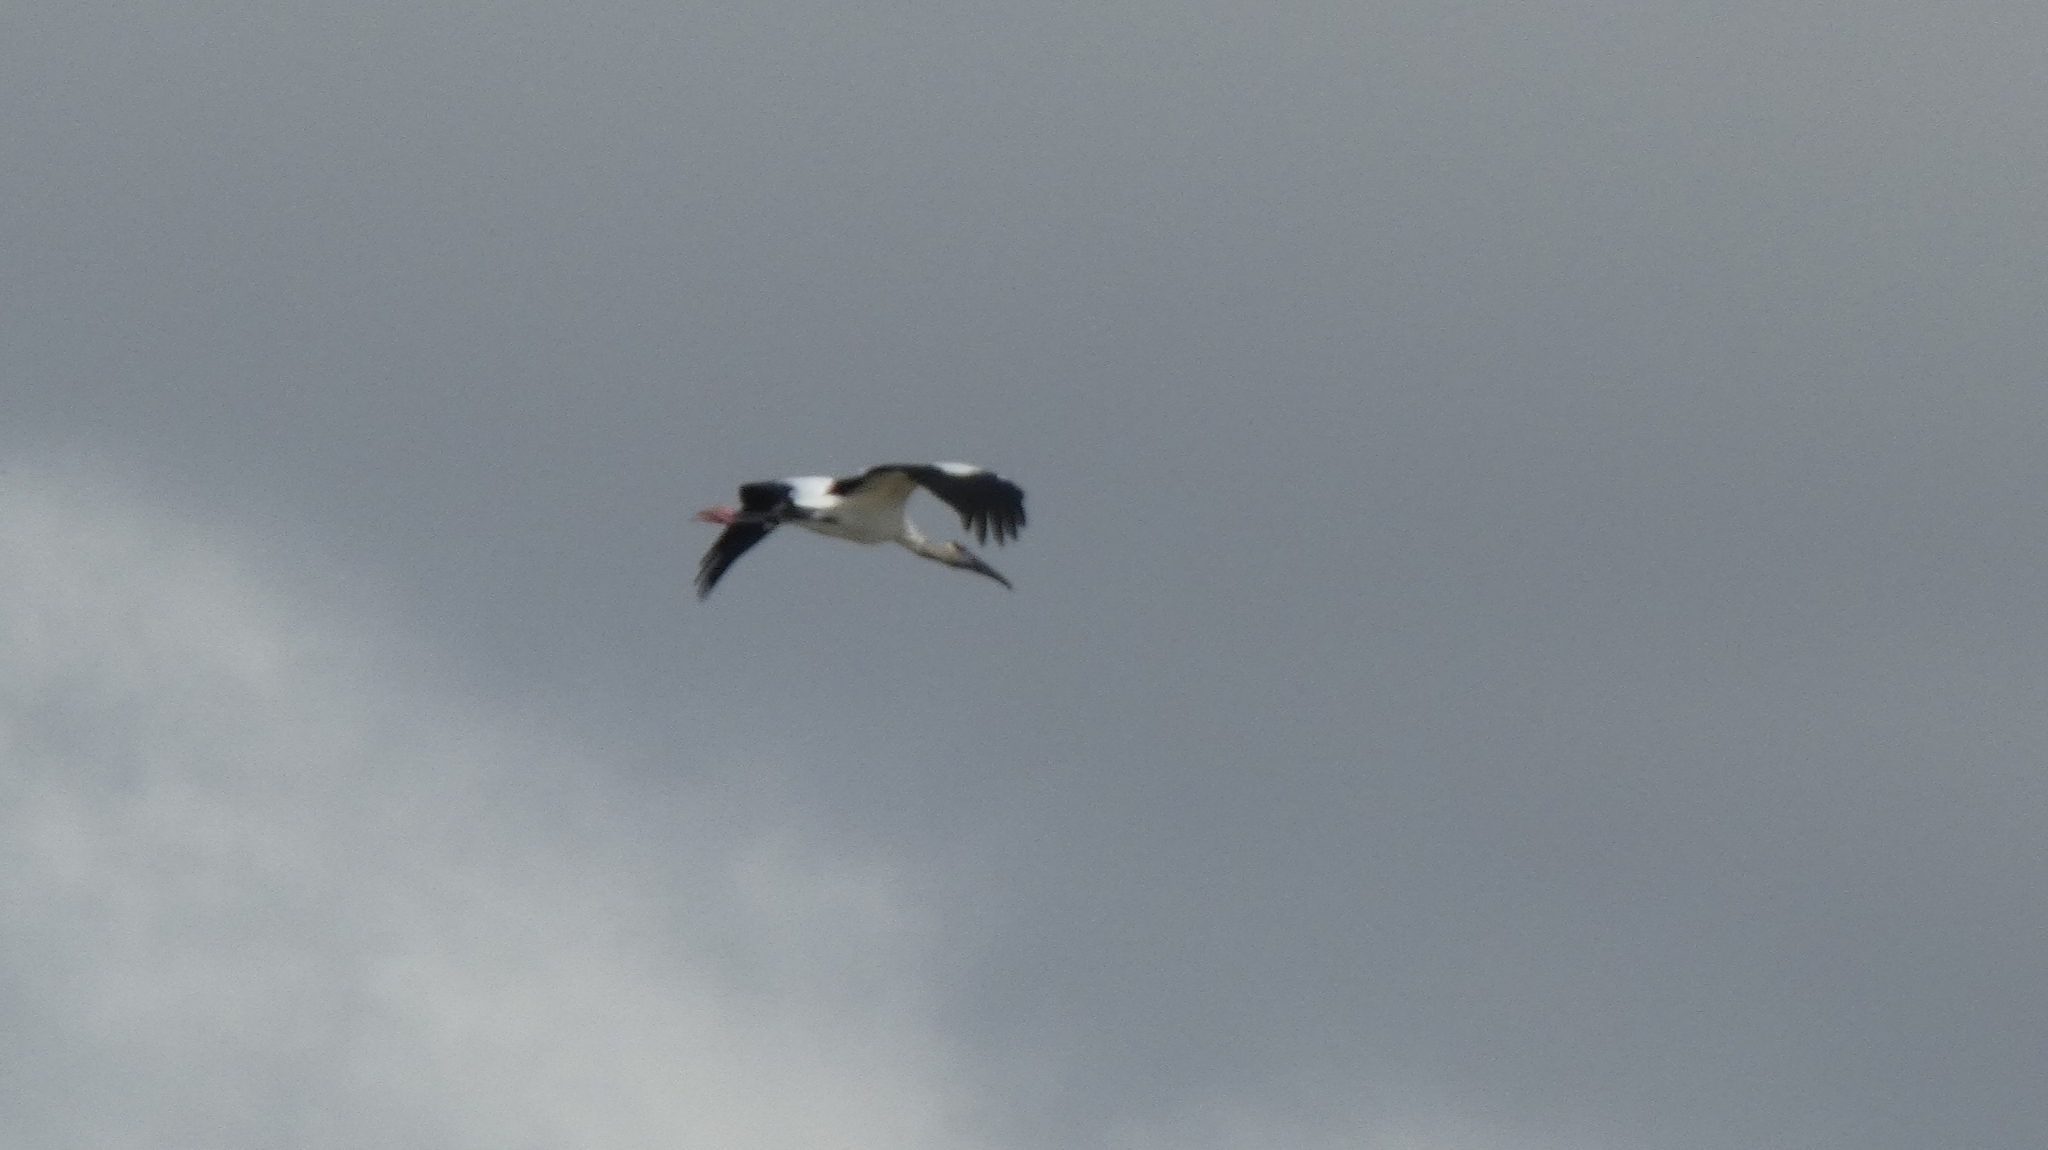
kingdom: Animalia
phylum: Chordata
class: Aves
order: Ciconiiformes
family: Ciconiidae
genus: Mycteria
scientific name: Mycteria americana
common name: Wood stork
